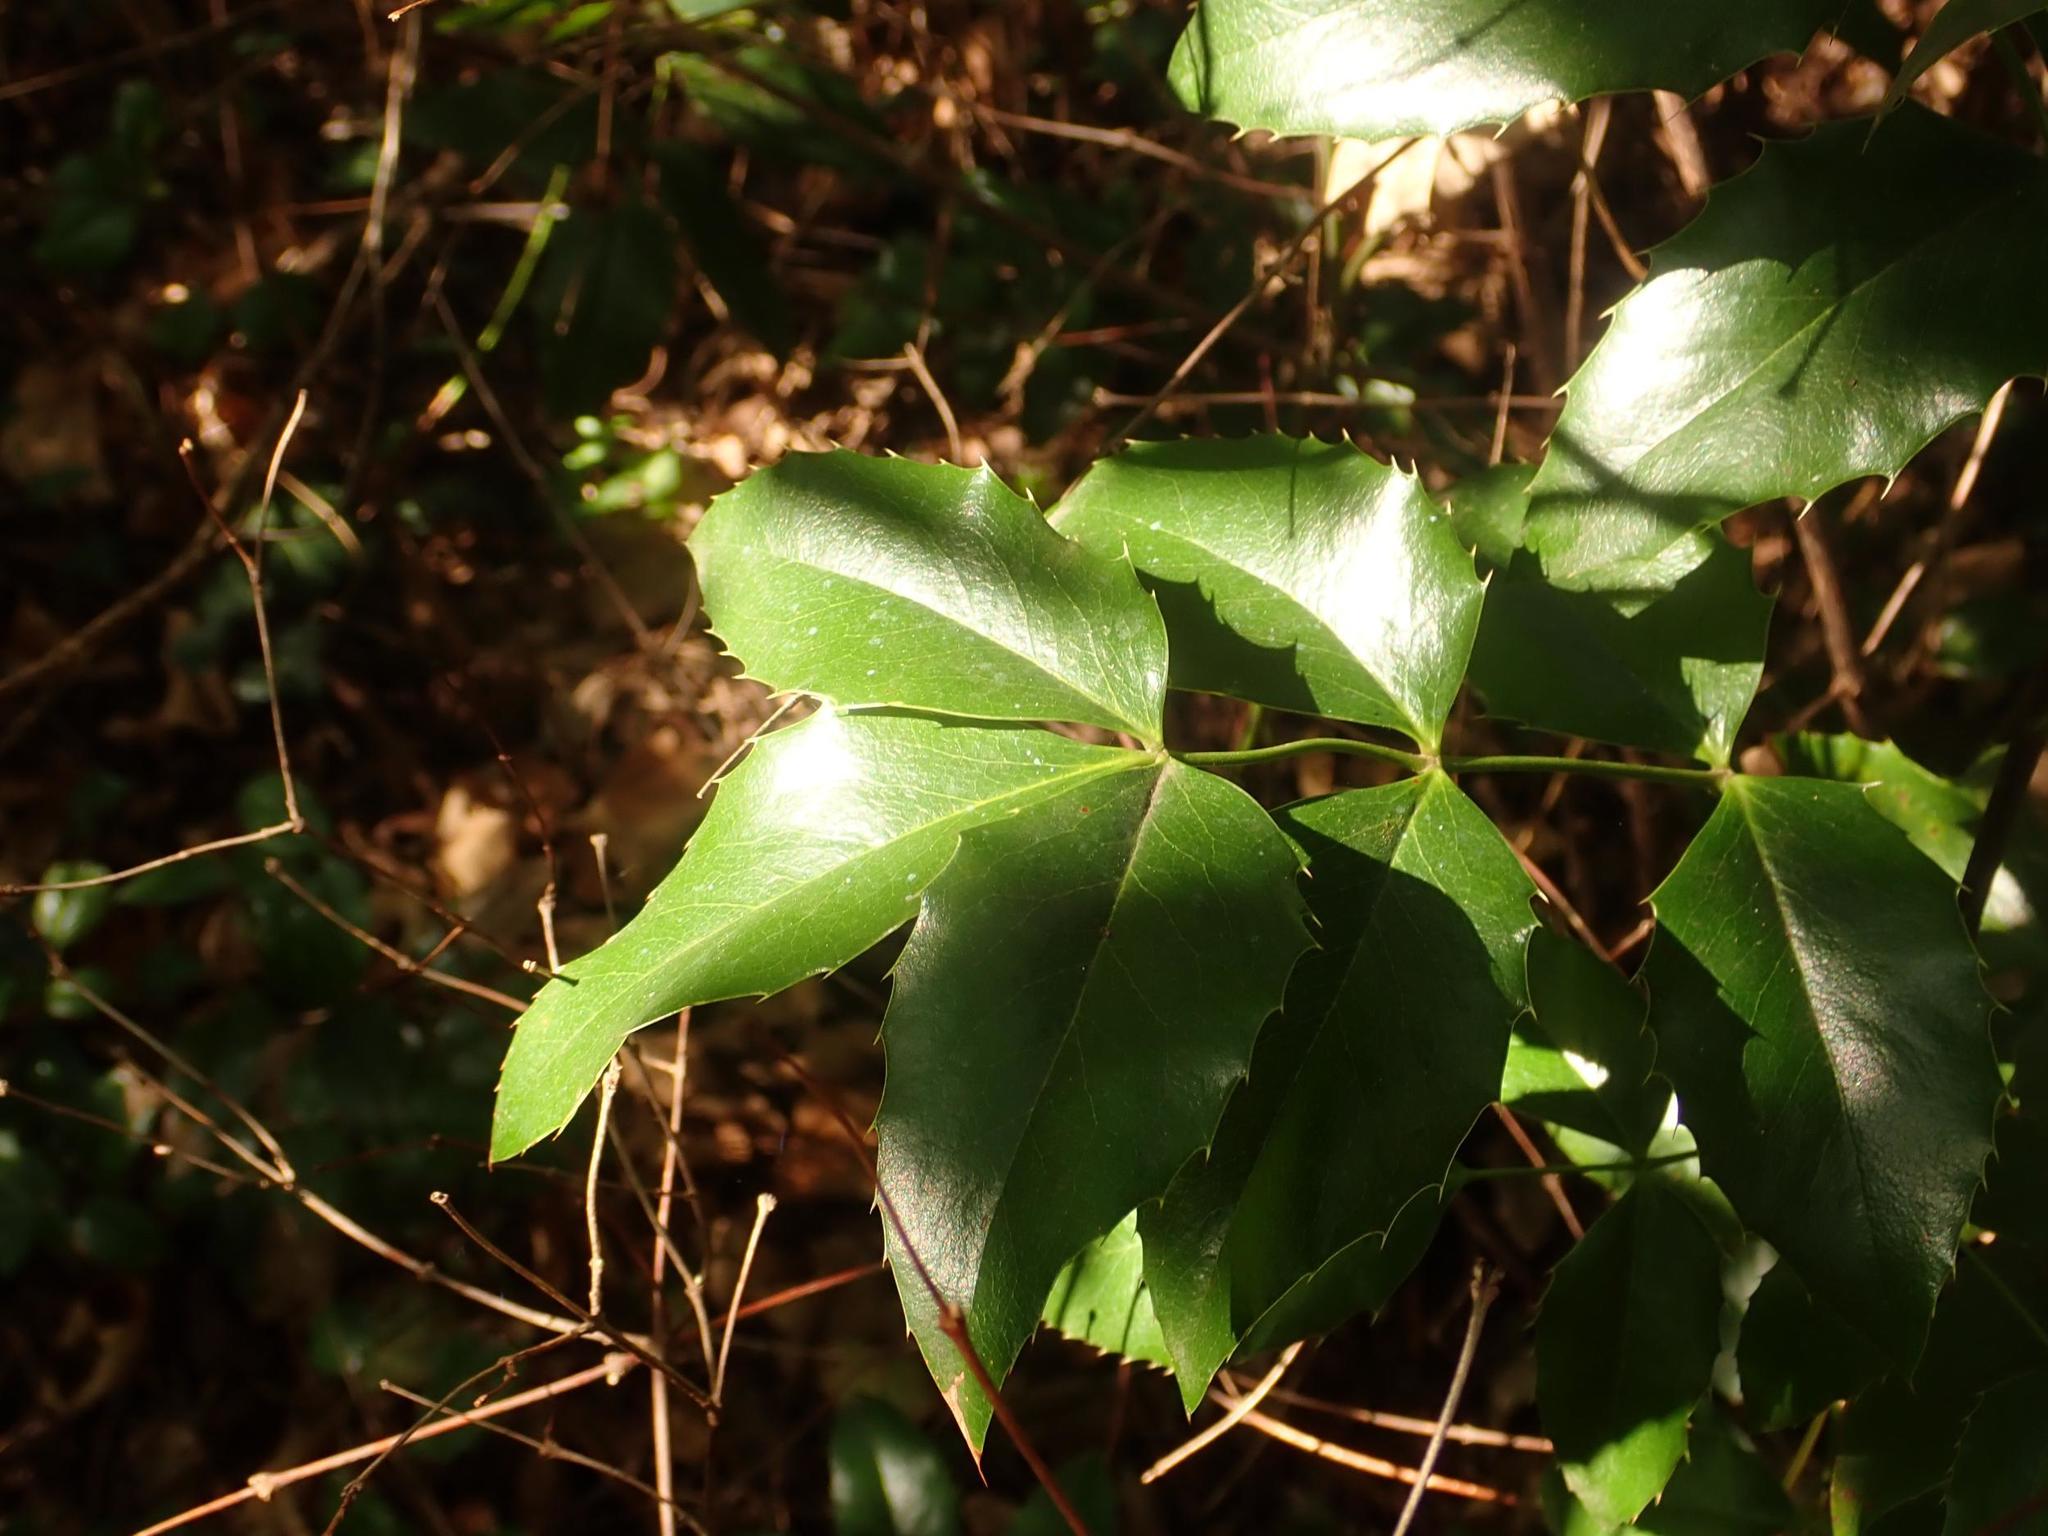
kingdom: Plantae
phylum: Tracheophyta
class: Magnoliopsida
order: Ranunculales
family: Berberidaceae
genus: Mahonia
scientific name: Mahonia aquifolium
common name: Oregon-grape
